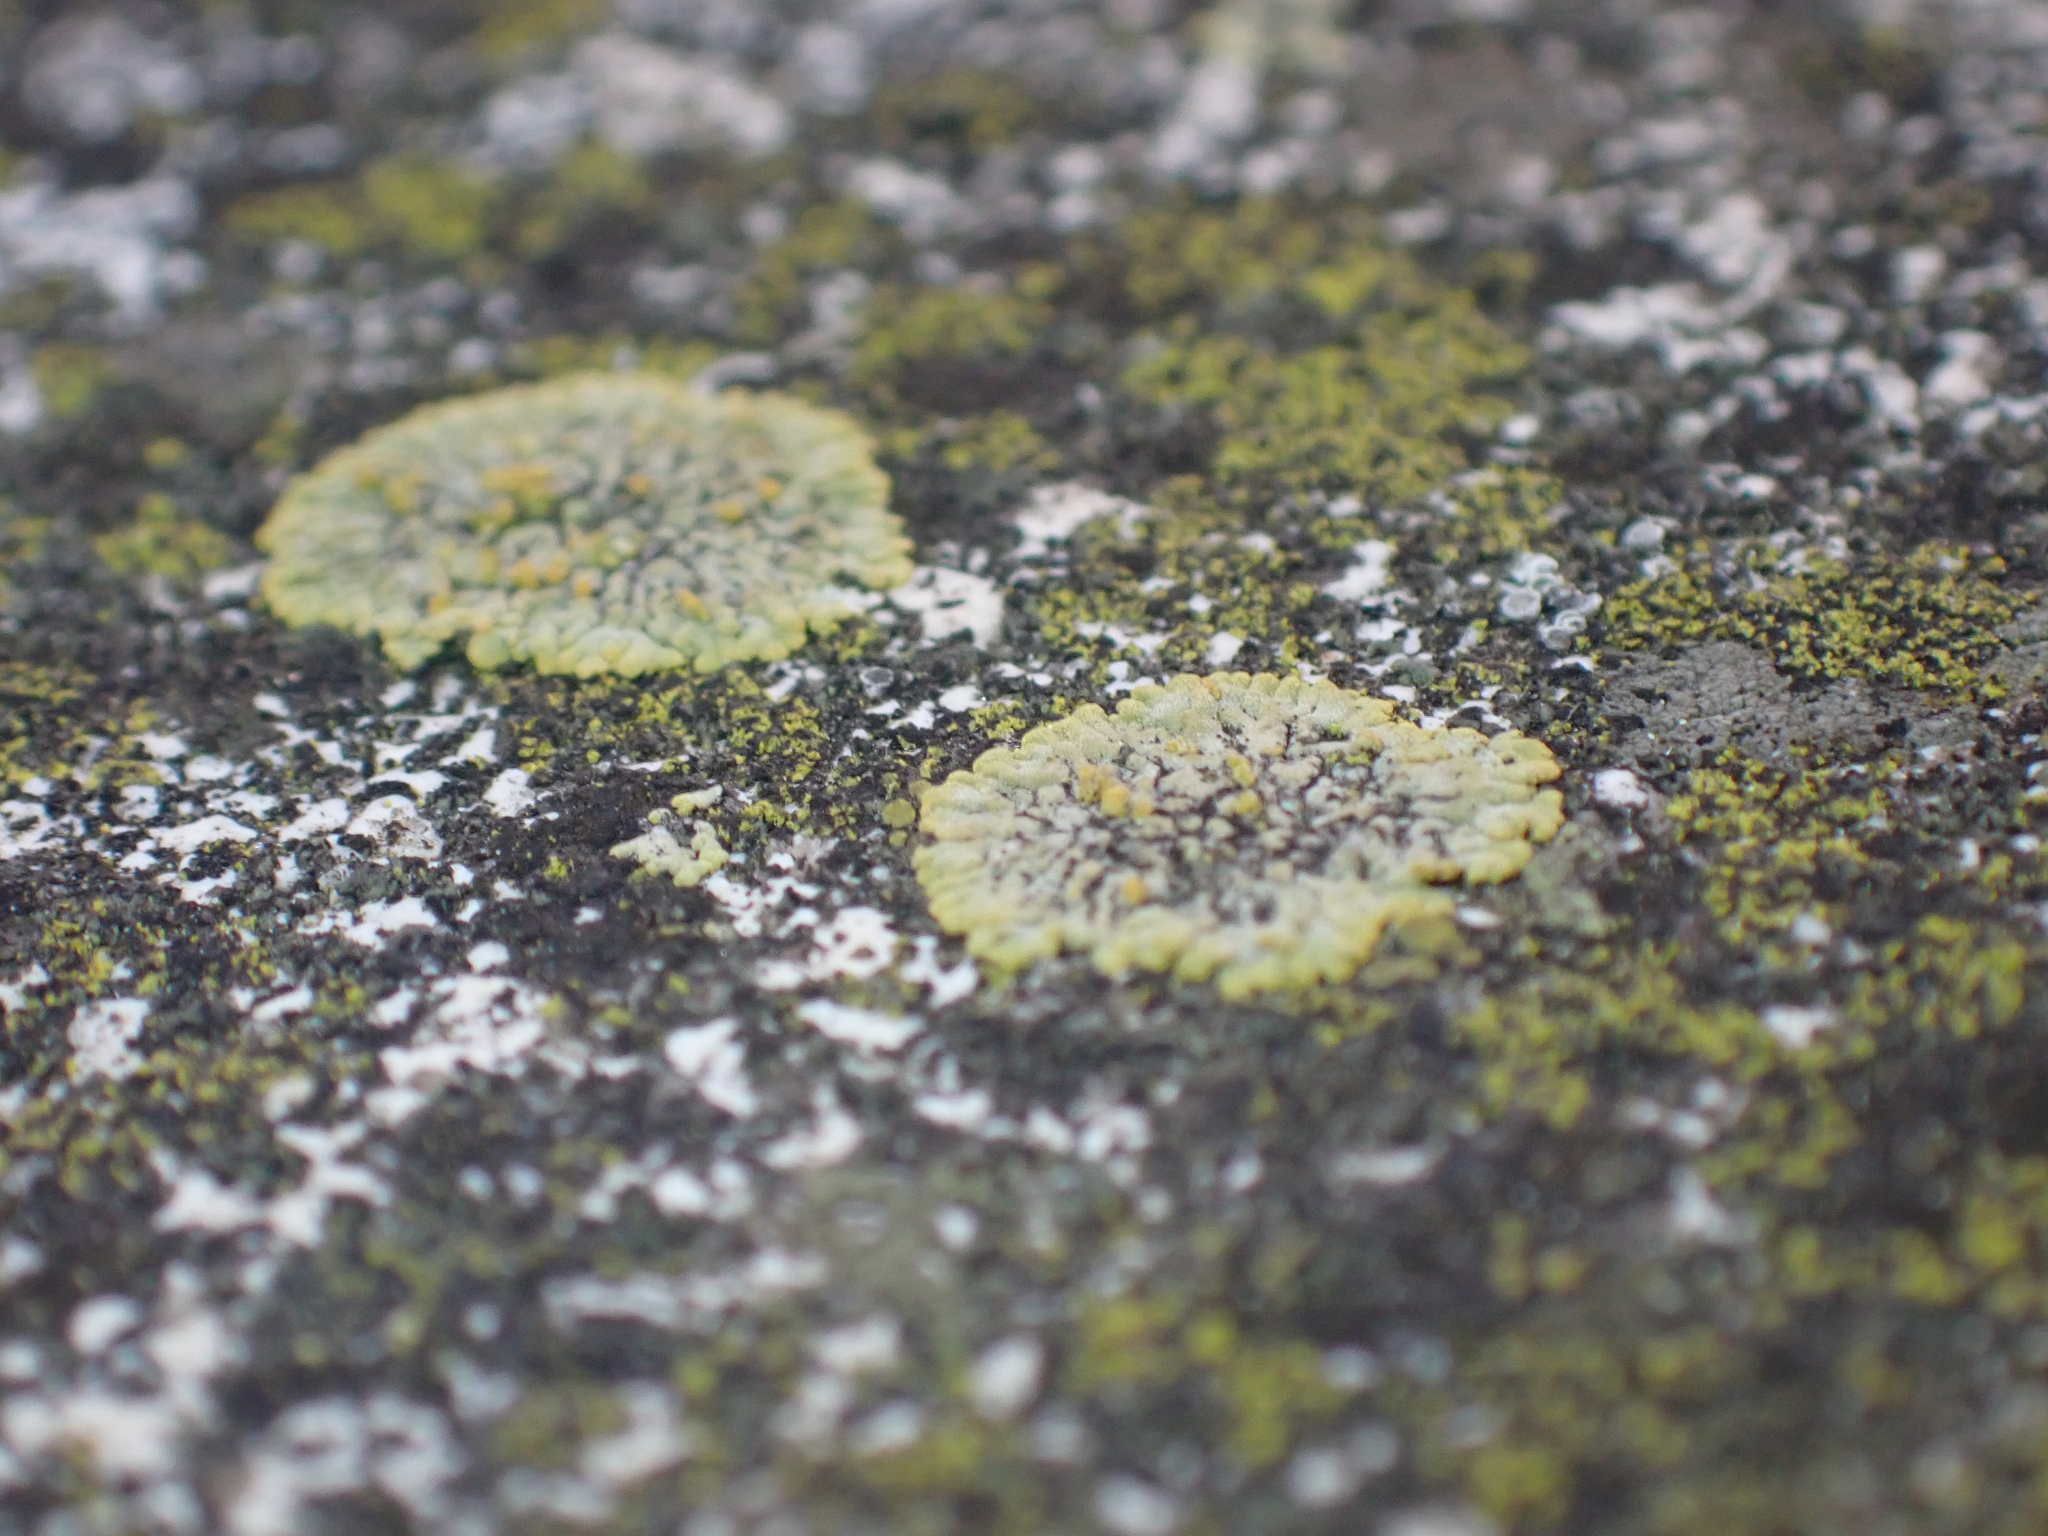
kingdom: Fungi
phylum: Ascomycota
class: Lecanoromycetes
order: Teloschistales
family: Teloschistaceae
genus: Calogaya
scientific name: Calogaya decipiens
